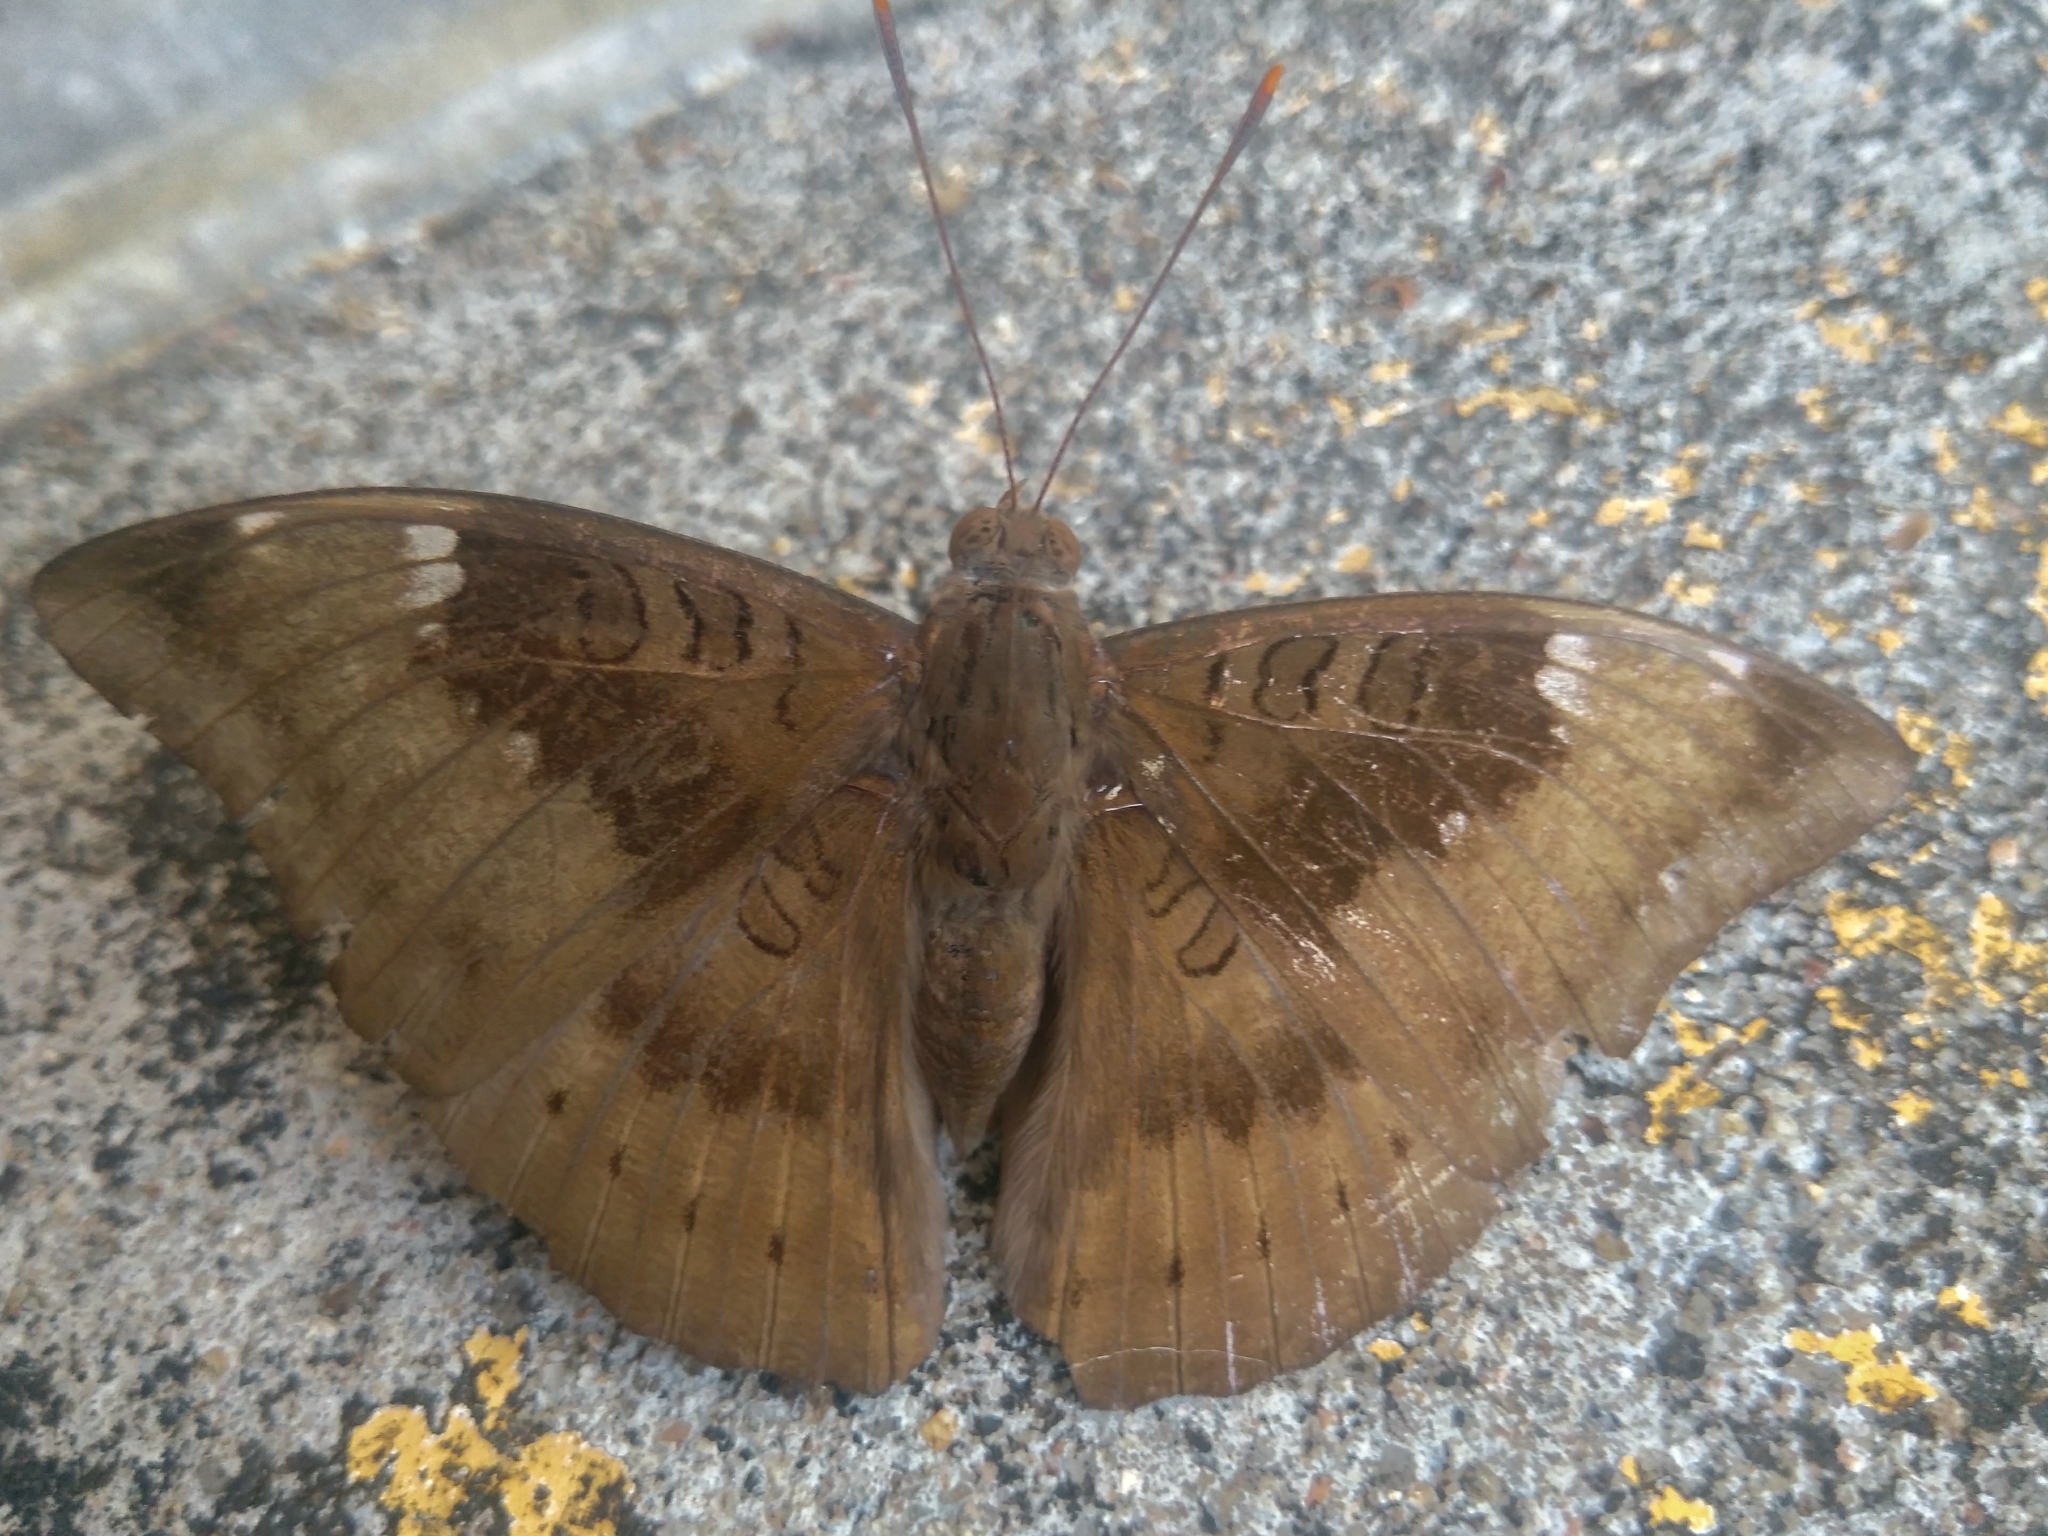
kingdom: Animalia
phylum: Arthropoda
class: Insecta
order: Lepidoptera
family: Nymphalidae
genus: Euthalia
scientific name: Euthalia aconthea
